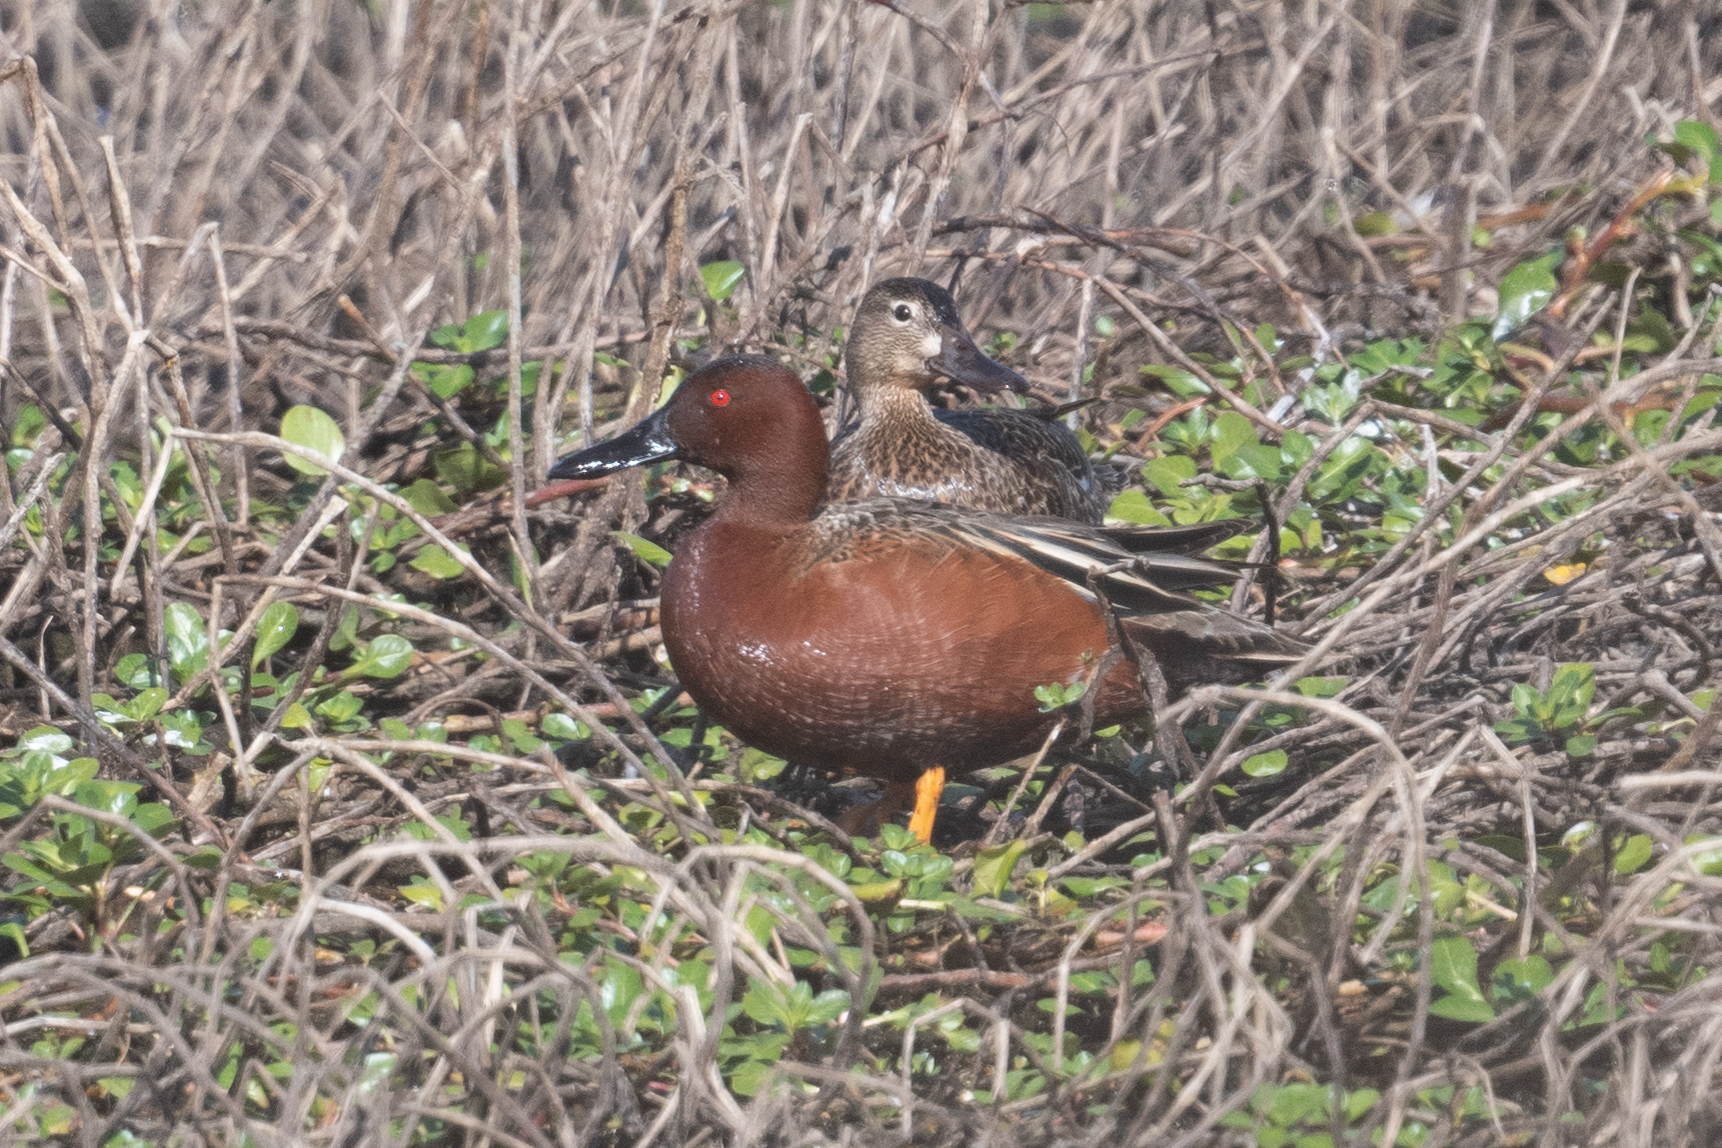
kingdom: Animalia
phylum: Chordata
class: Aves
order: Anseriformes
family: Anatidae
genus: Spatula
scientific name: Spatula cyanoptera
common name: Cinnamon teal
